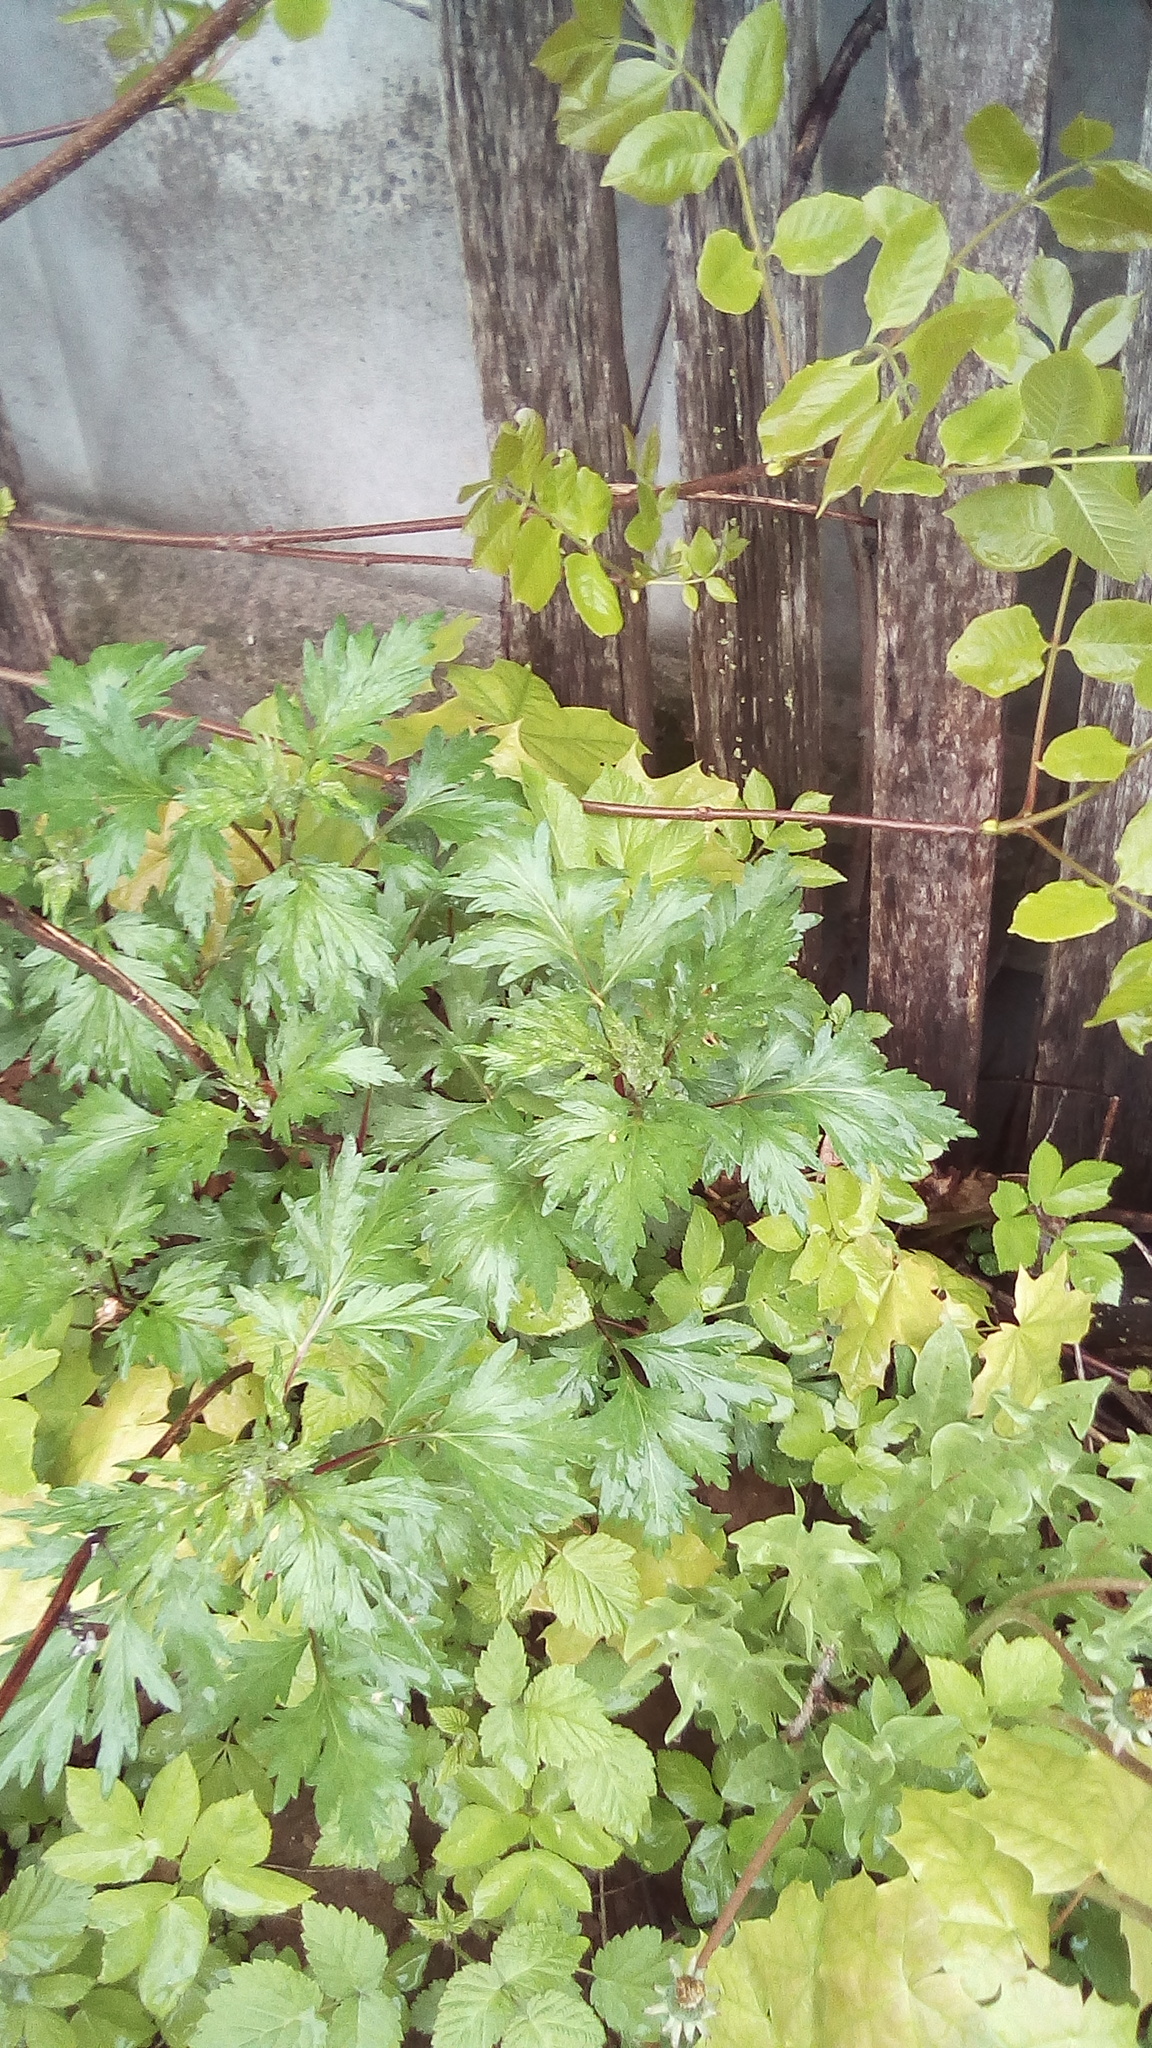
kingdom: Plantae
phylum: Tracheophyta
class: Magnoliopsida
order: Asterales
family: Asteraceae
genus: Artemisia
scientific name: Artemisia vulgaris
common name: Mugwort
